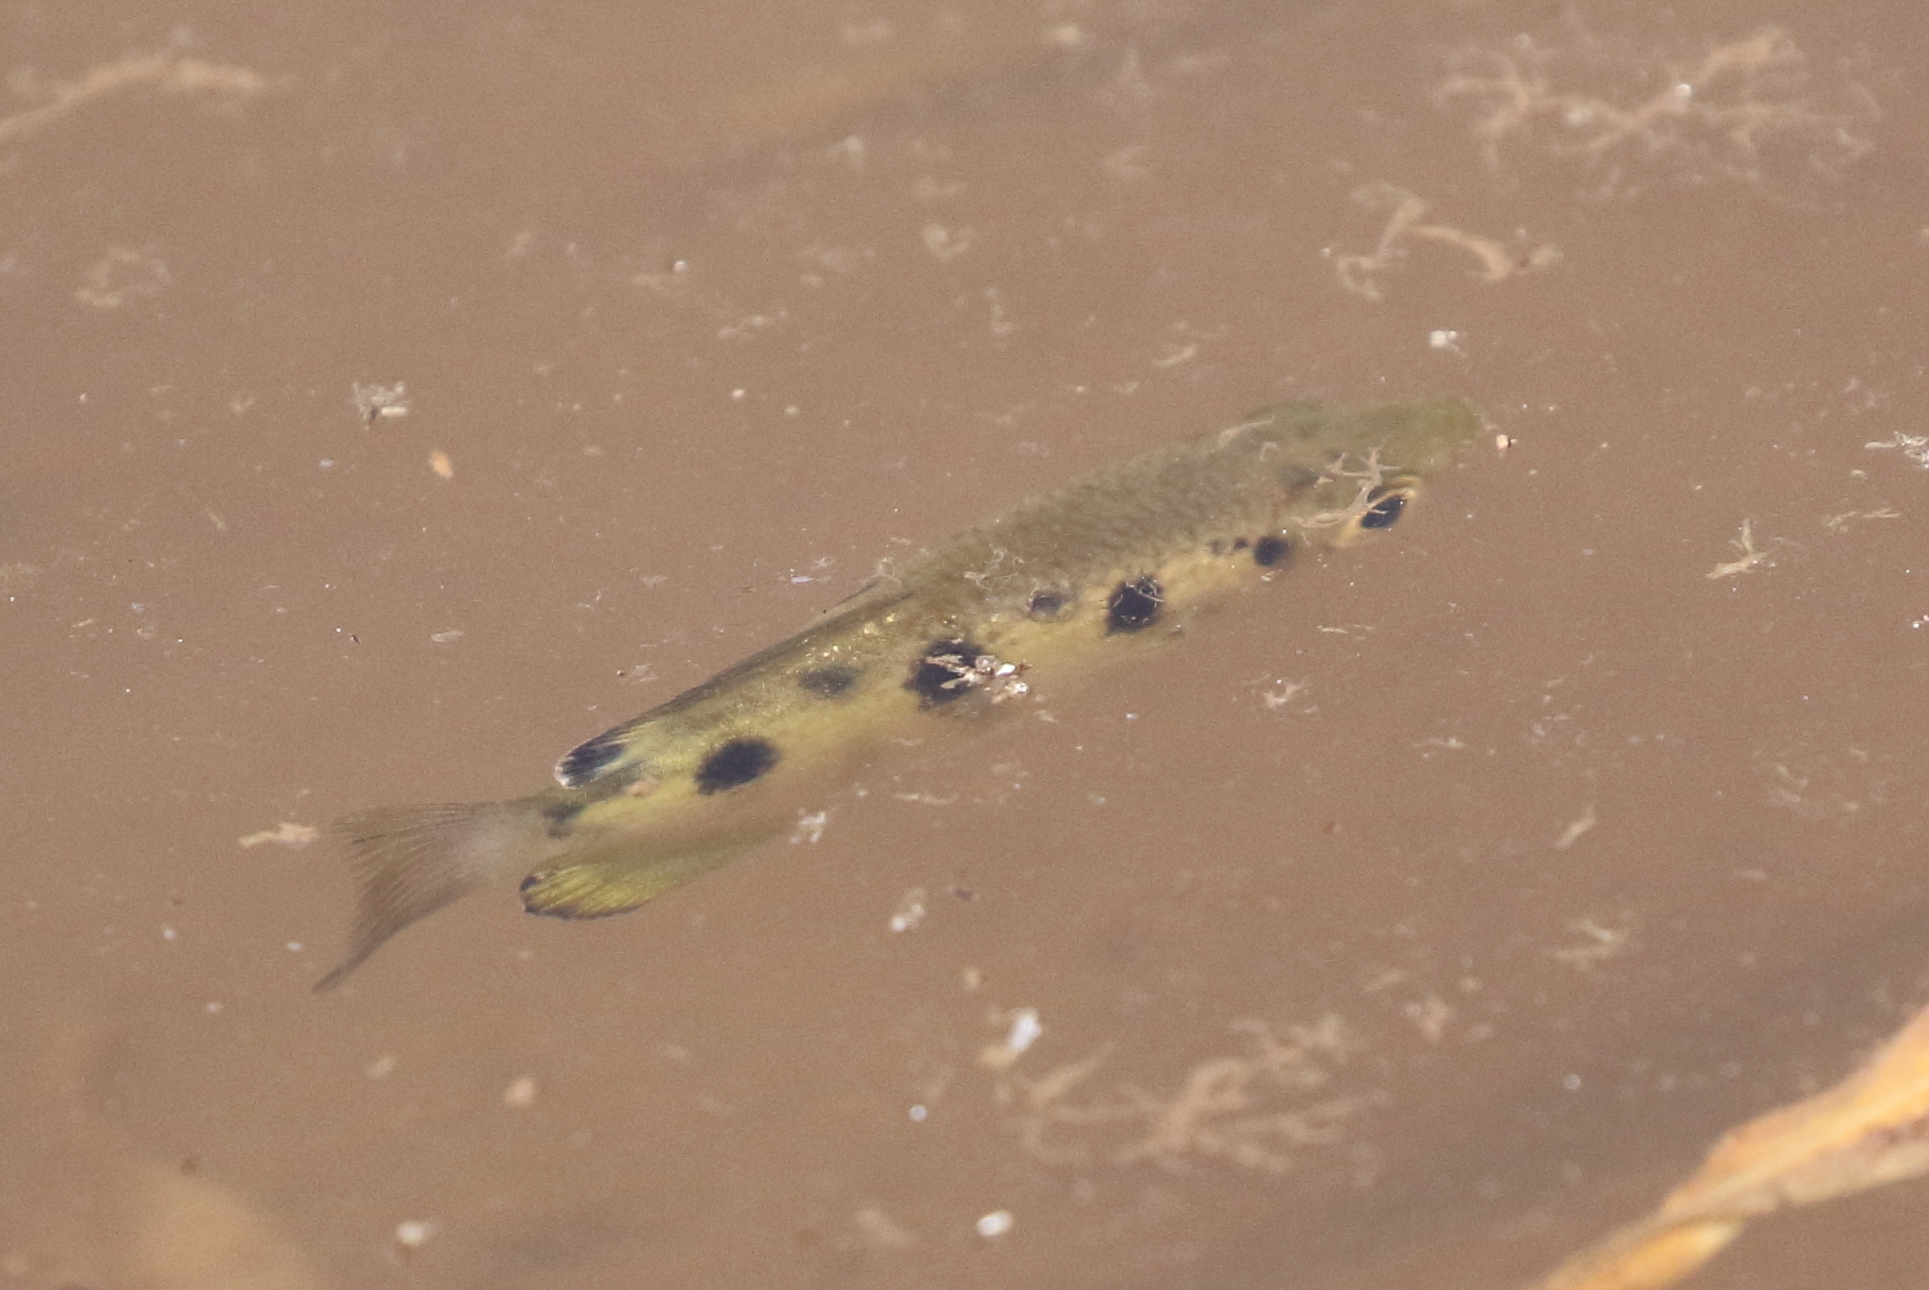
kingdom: Animalia
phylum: Chordata
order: Perciformes
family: Toxotidae
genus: Toxotes
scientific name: Toxotes chatareus
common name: Spotted archerfish
